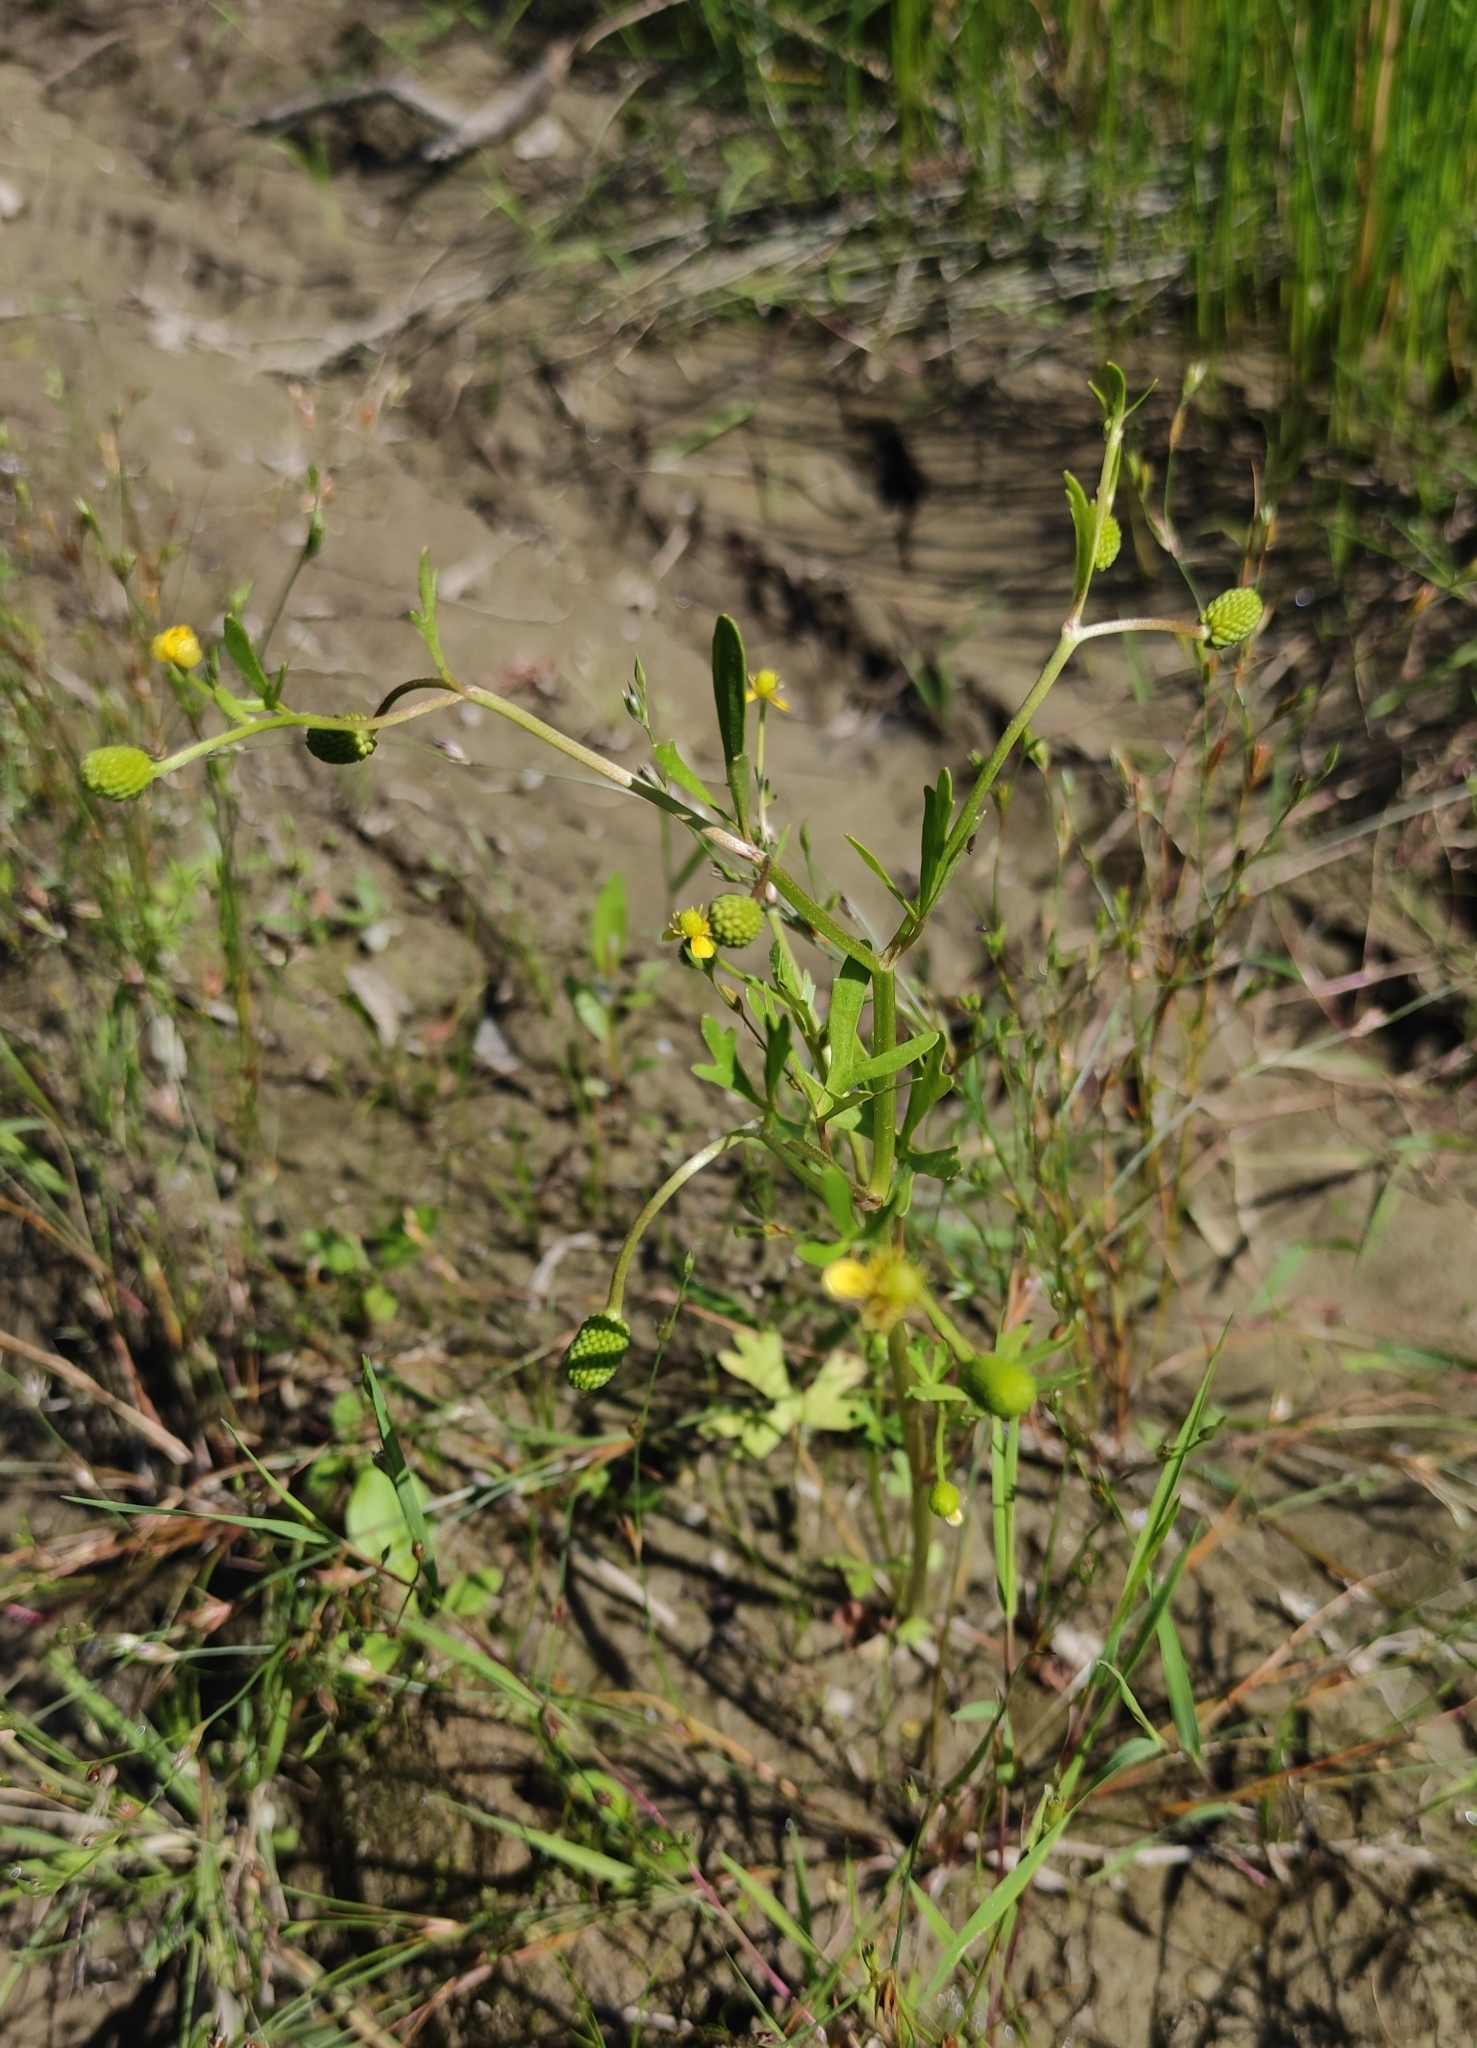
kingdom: Plantae
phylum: Tracheophyta
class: Magnoliopsida
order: Ranunculales
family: Ranunculaceae
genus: Ranunculus
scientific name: Ranunculus sceleratus
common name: Celery-leaved buttercup
